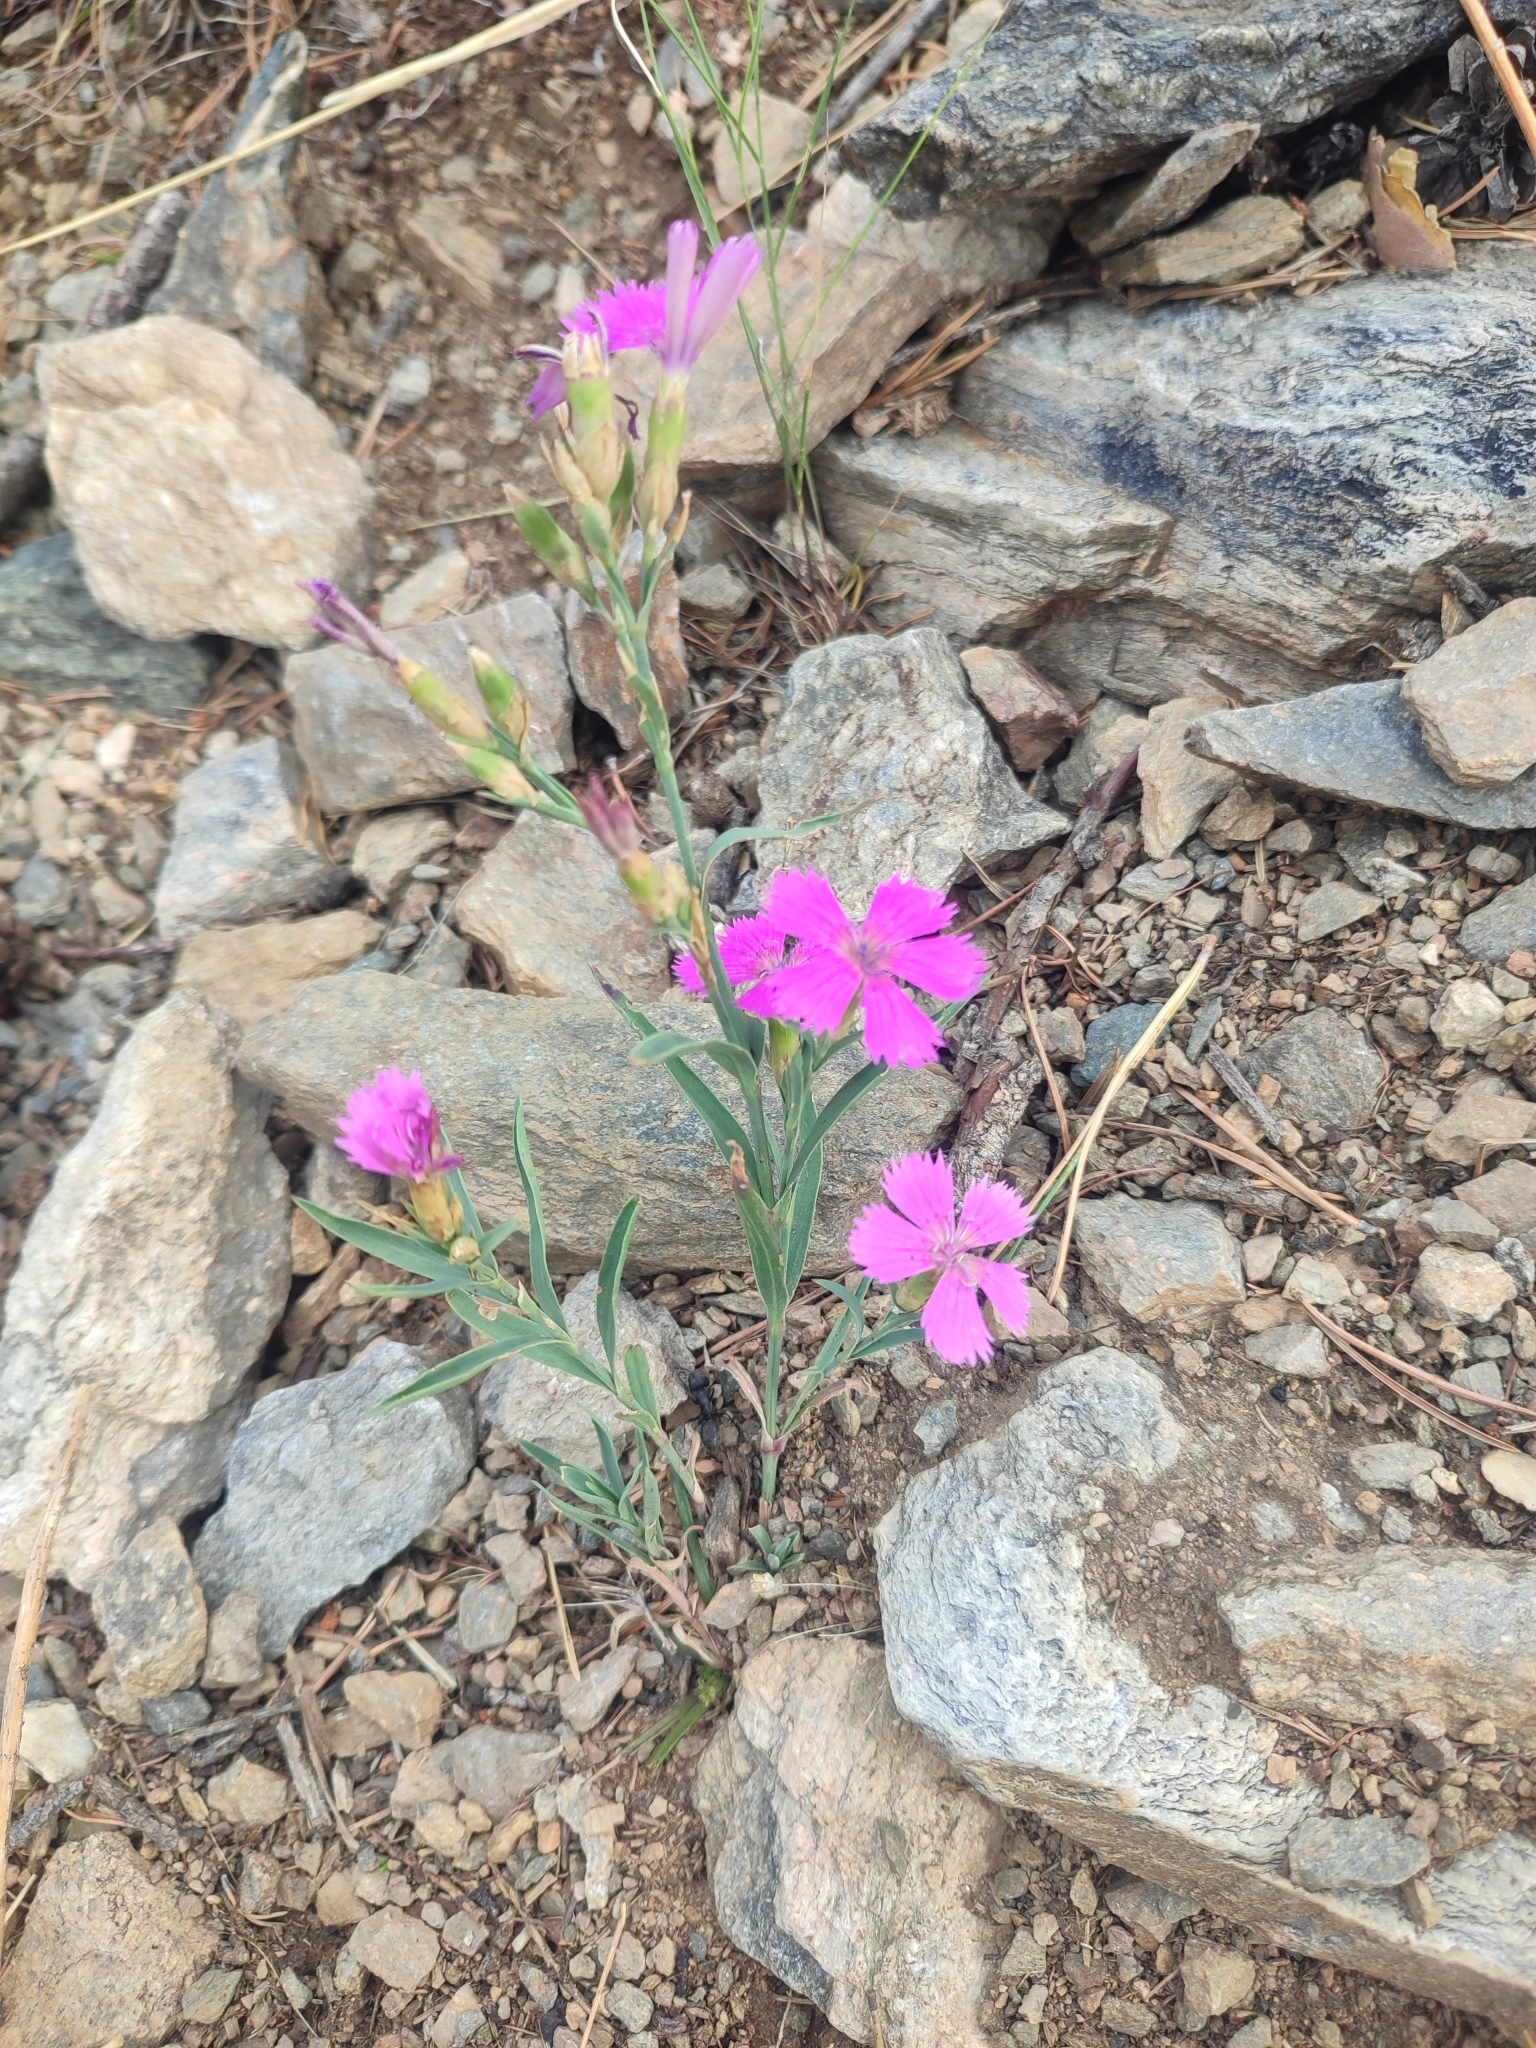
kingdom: Plantae
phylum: Tracheophyta
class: Magnoliopsida
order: Caryophyllales
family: Caryophyllaceae
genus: Dianthus
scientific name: Dianthus chinensis
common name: Rainbow pink
